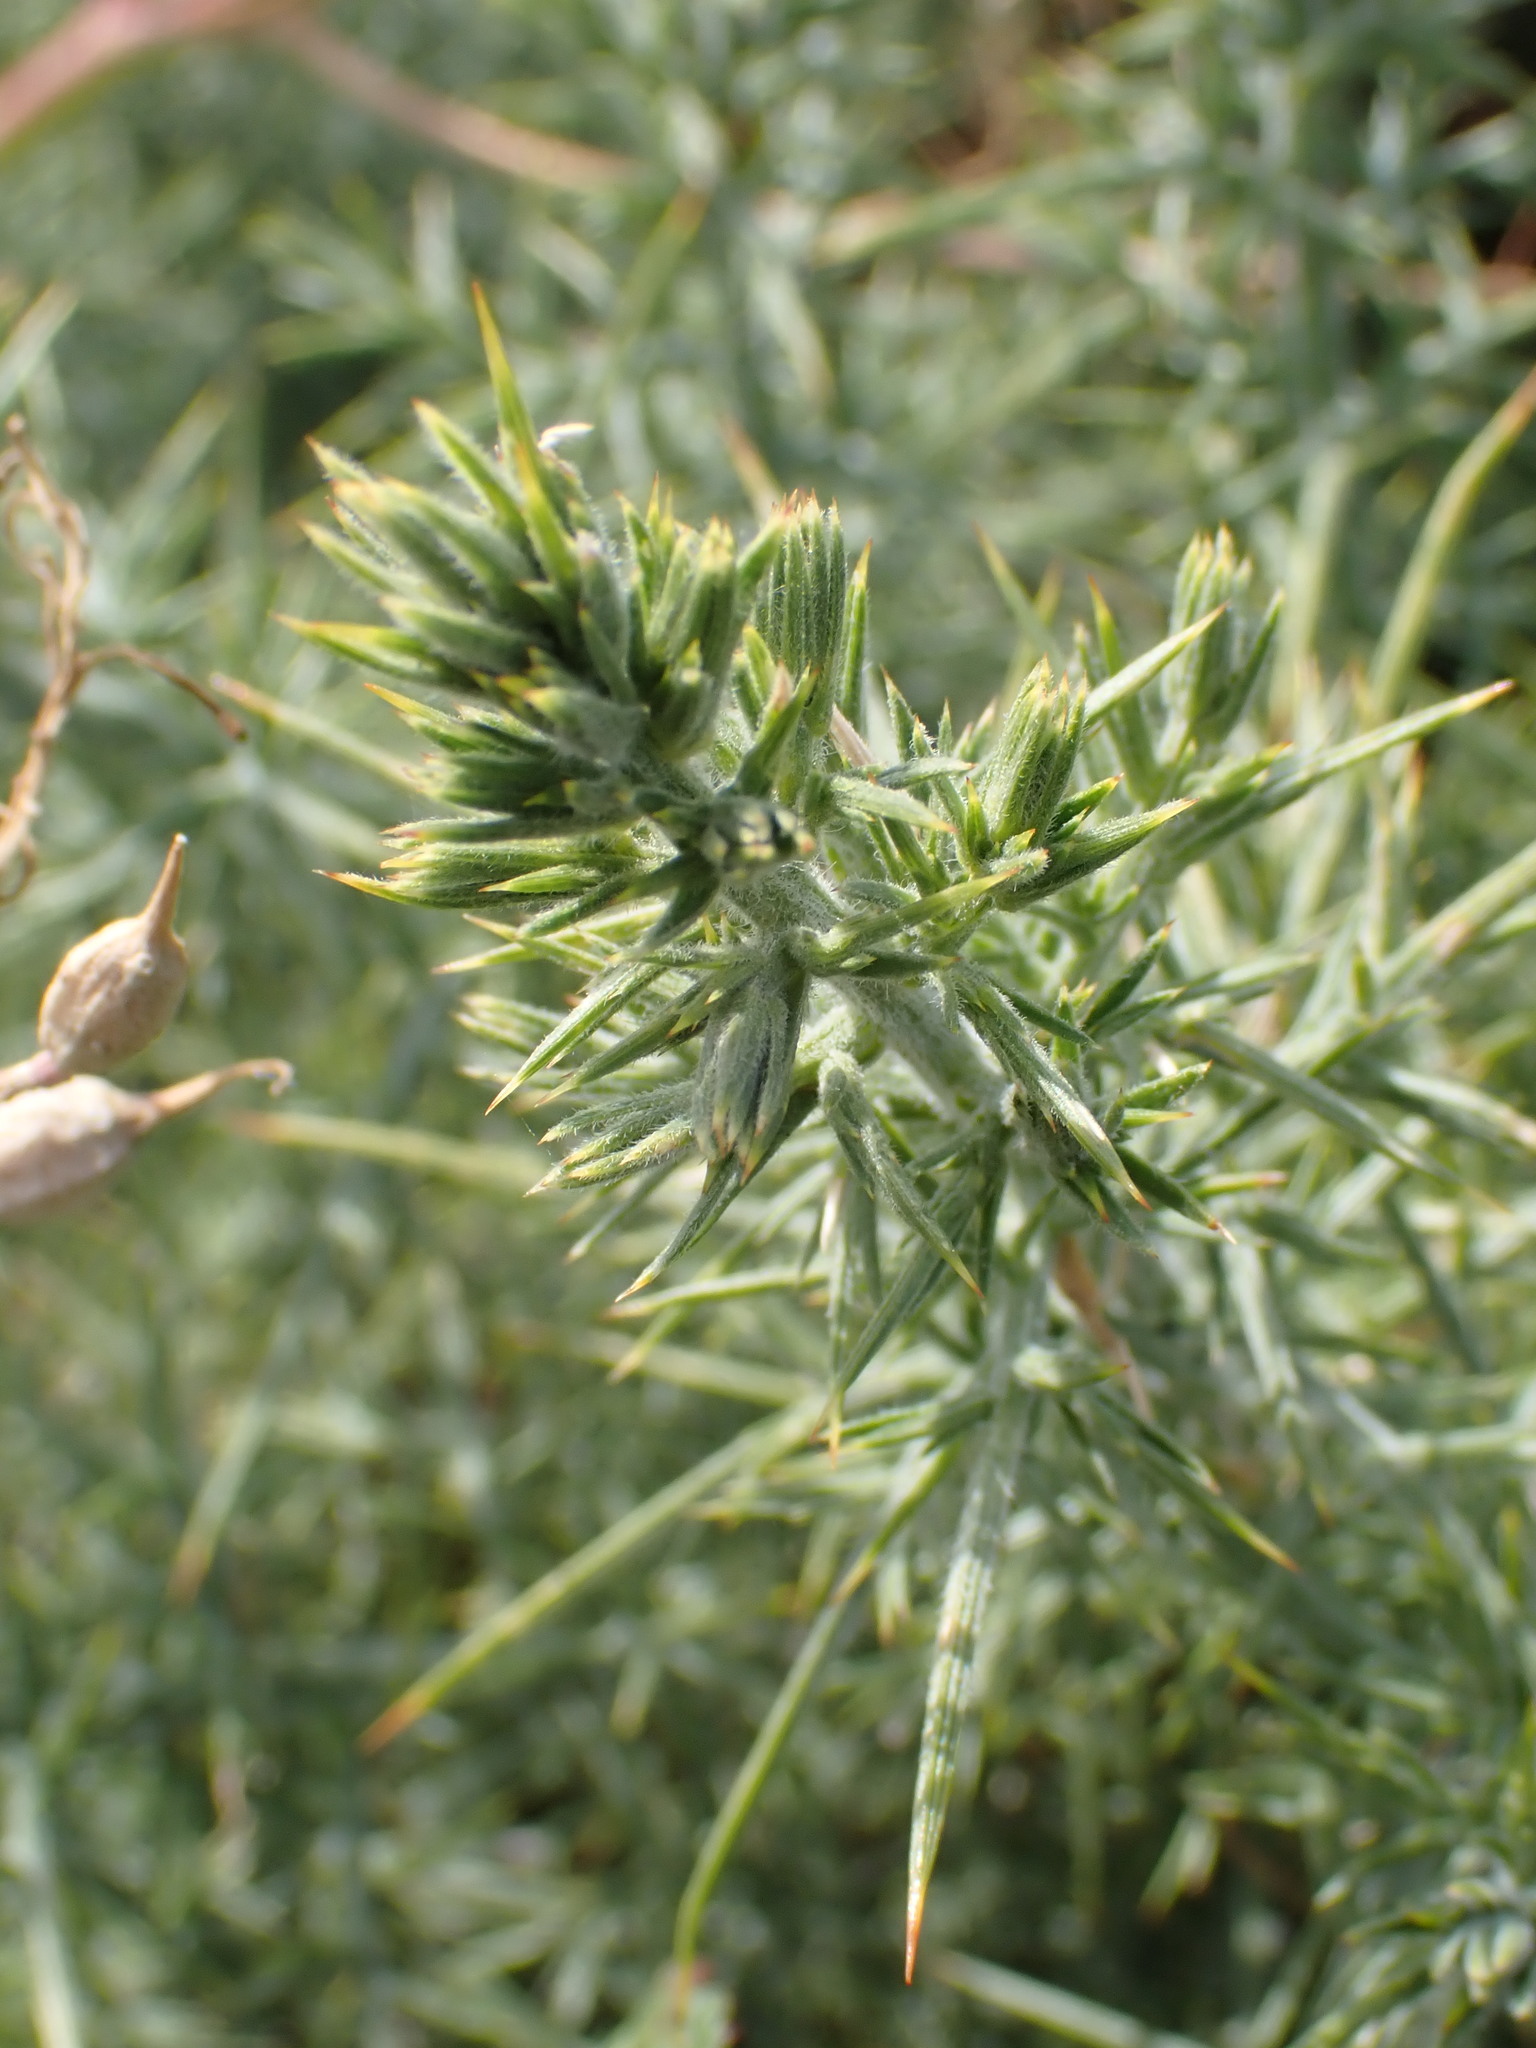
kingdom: Plantae
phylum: Tracheophyta
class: Magnoliopsida
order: Fabales
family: Fabaceae
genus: Ulex
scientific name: Ulex europaeus
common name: Common gorse
